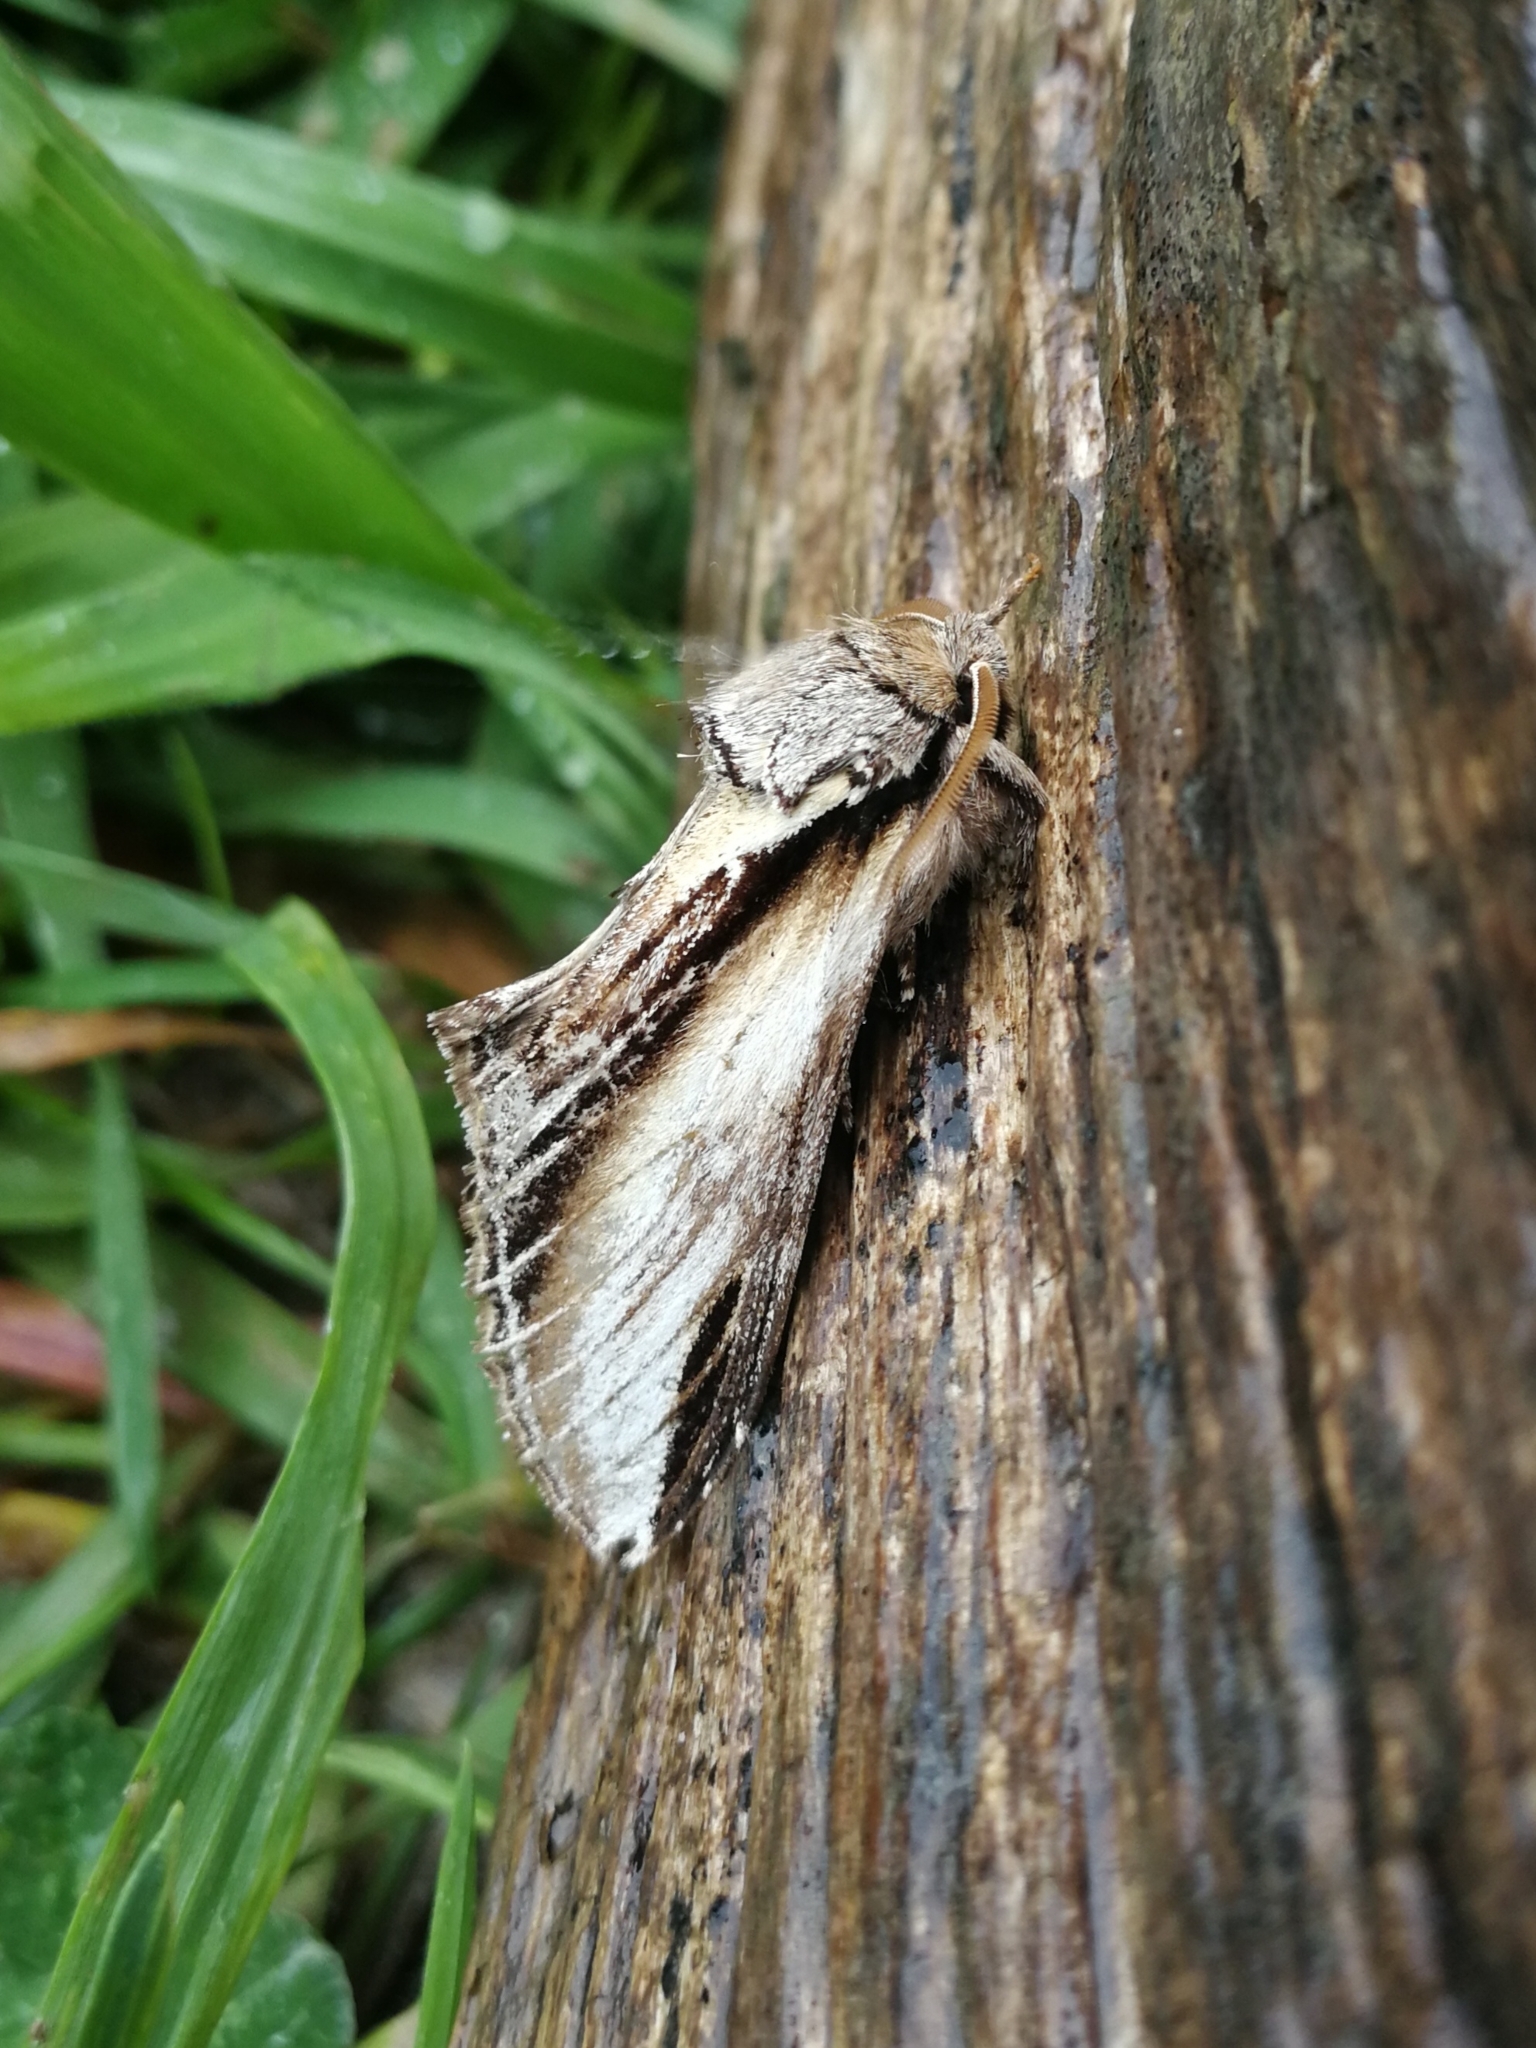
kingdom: Animalia
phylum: Arthropoda
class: Insecta
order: Lepidoptera
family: Notodontidae
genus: Pheosia
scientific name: Pheosia tremula
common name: Swallow prominent
